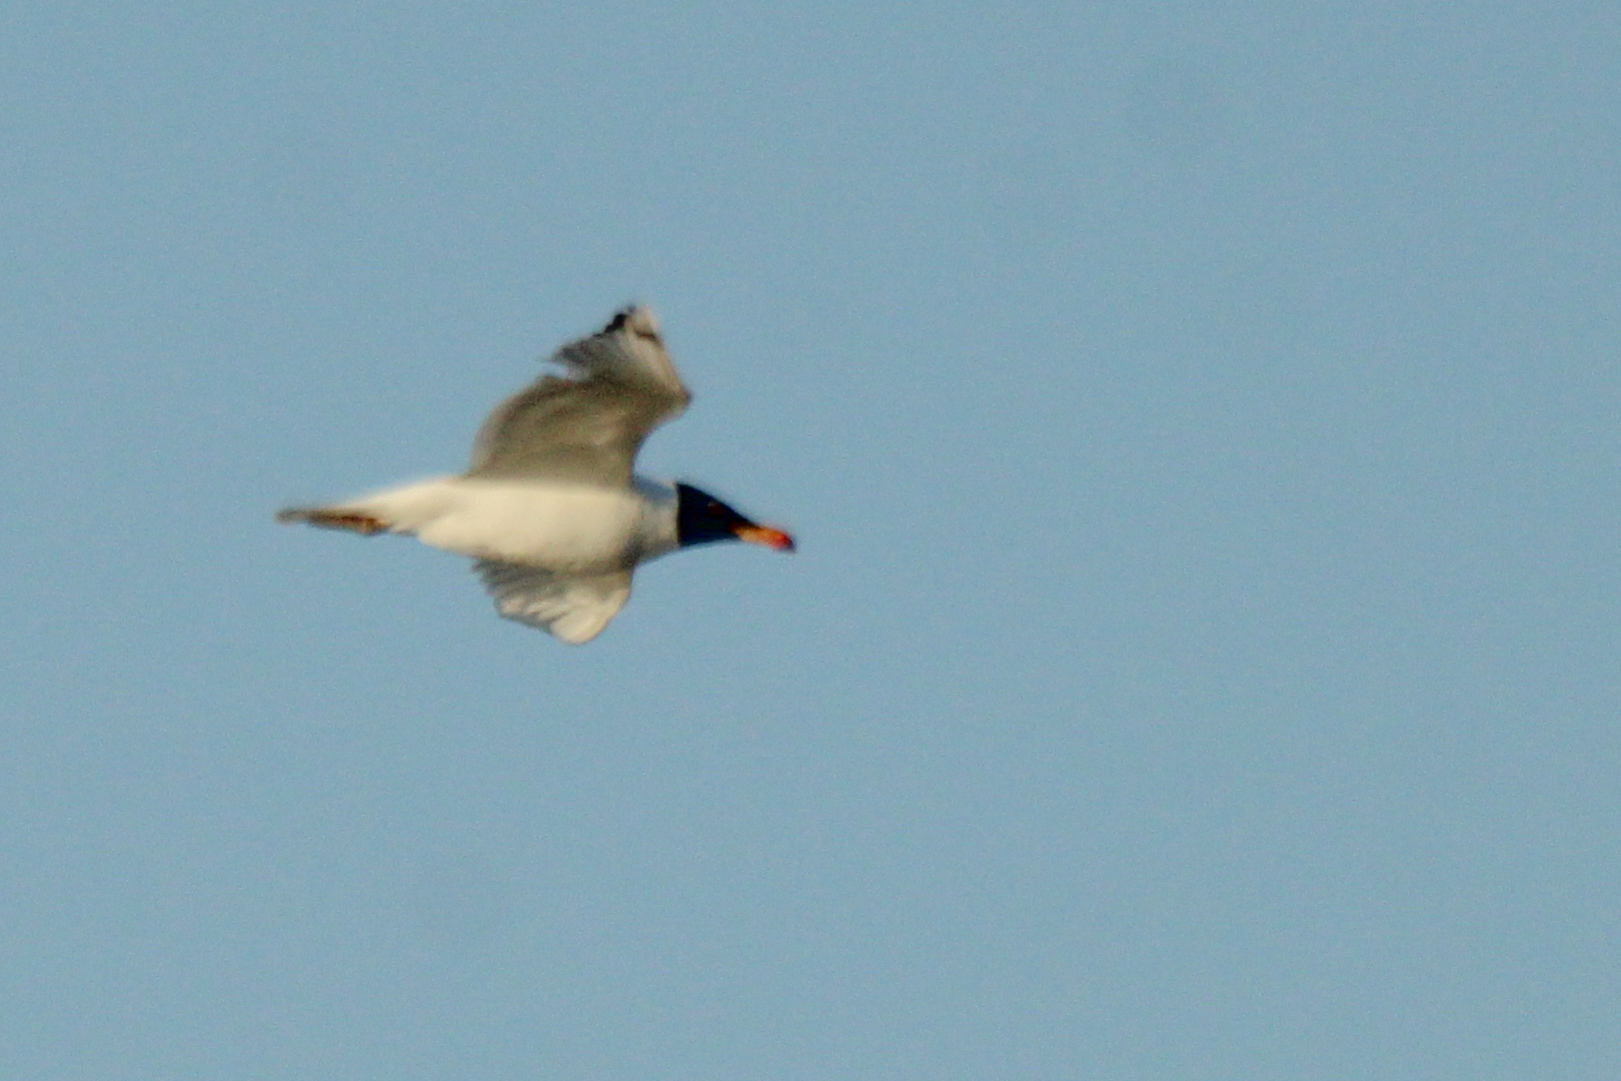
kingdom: Animalia
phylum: Chordata
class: Aves
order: Charadriiformes
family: Laridae
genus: Ichthyaetus
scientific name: Ichthyaetus ichthyaetus
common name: Pallas's gull
